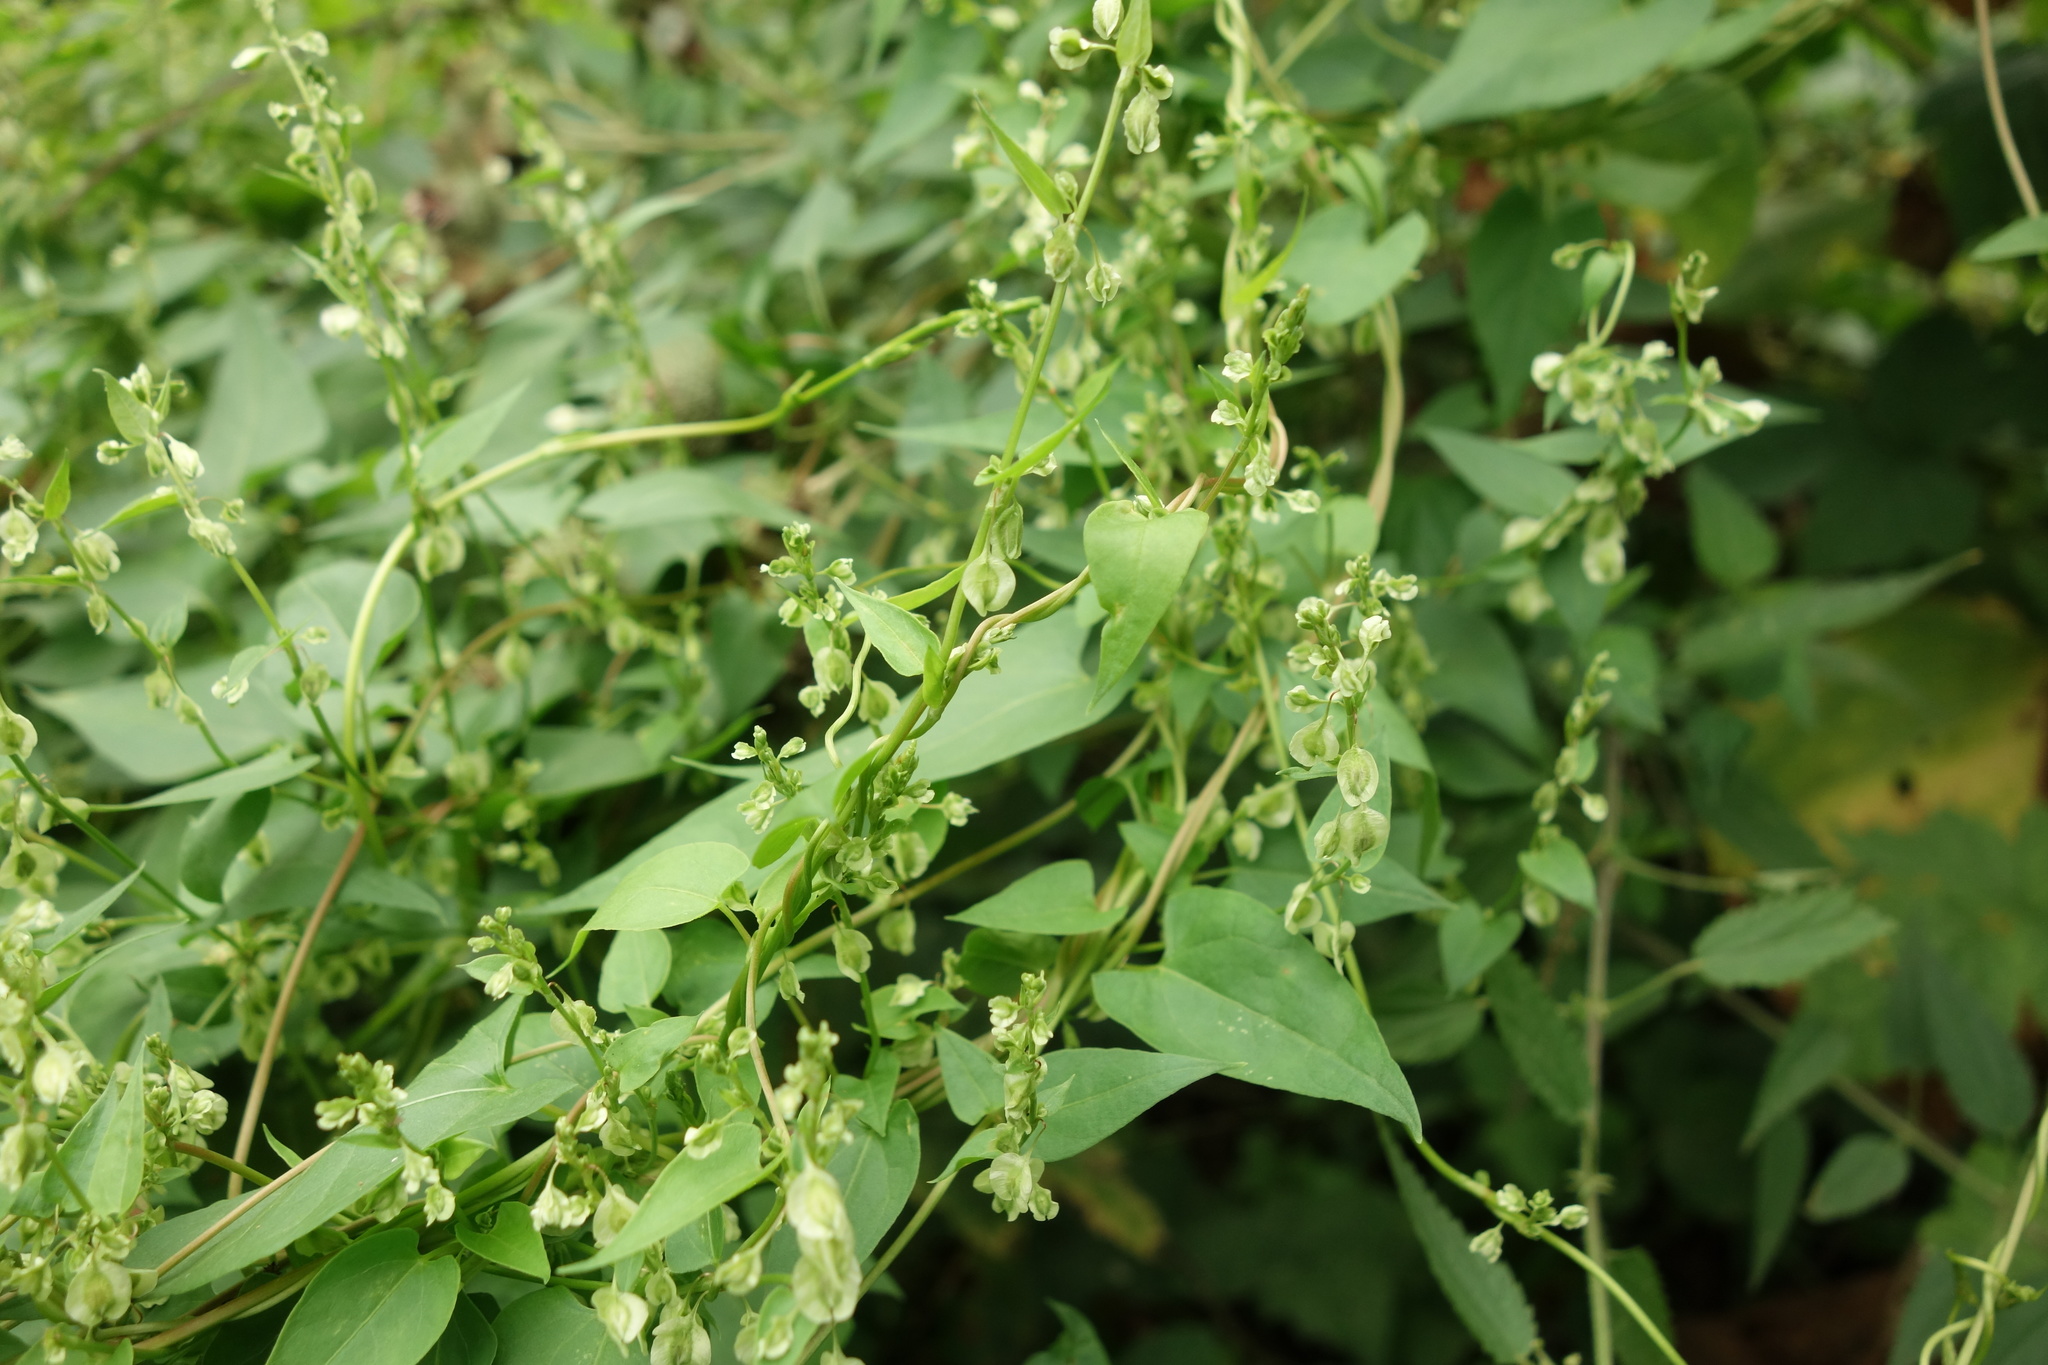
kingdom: Plantae
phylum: Tracheophyta
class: Magnoliopsida
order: Caryophyllales
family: Polygonaceae
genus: Fallopia
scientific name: Fallopia dumetorum
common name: Copse-bindweed
